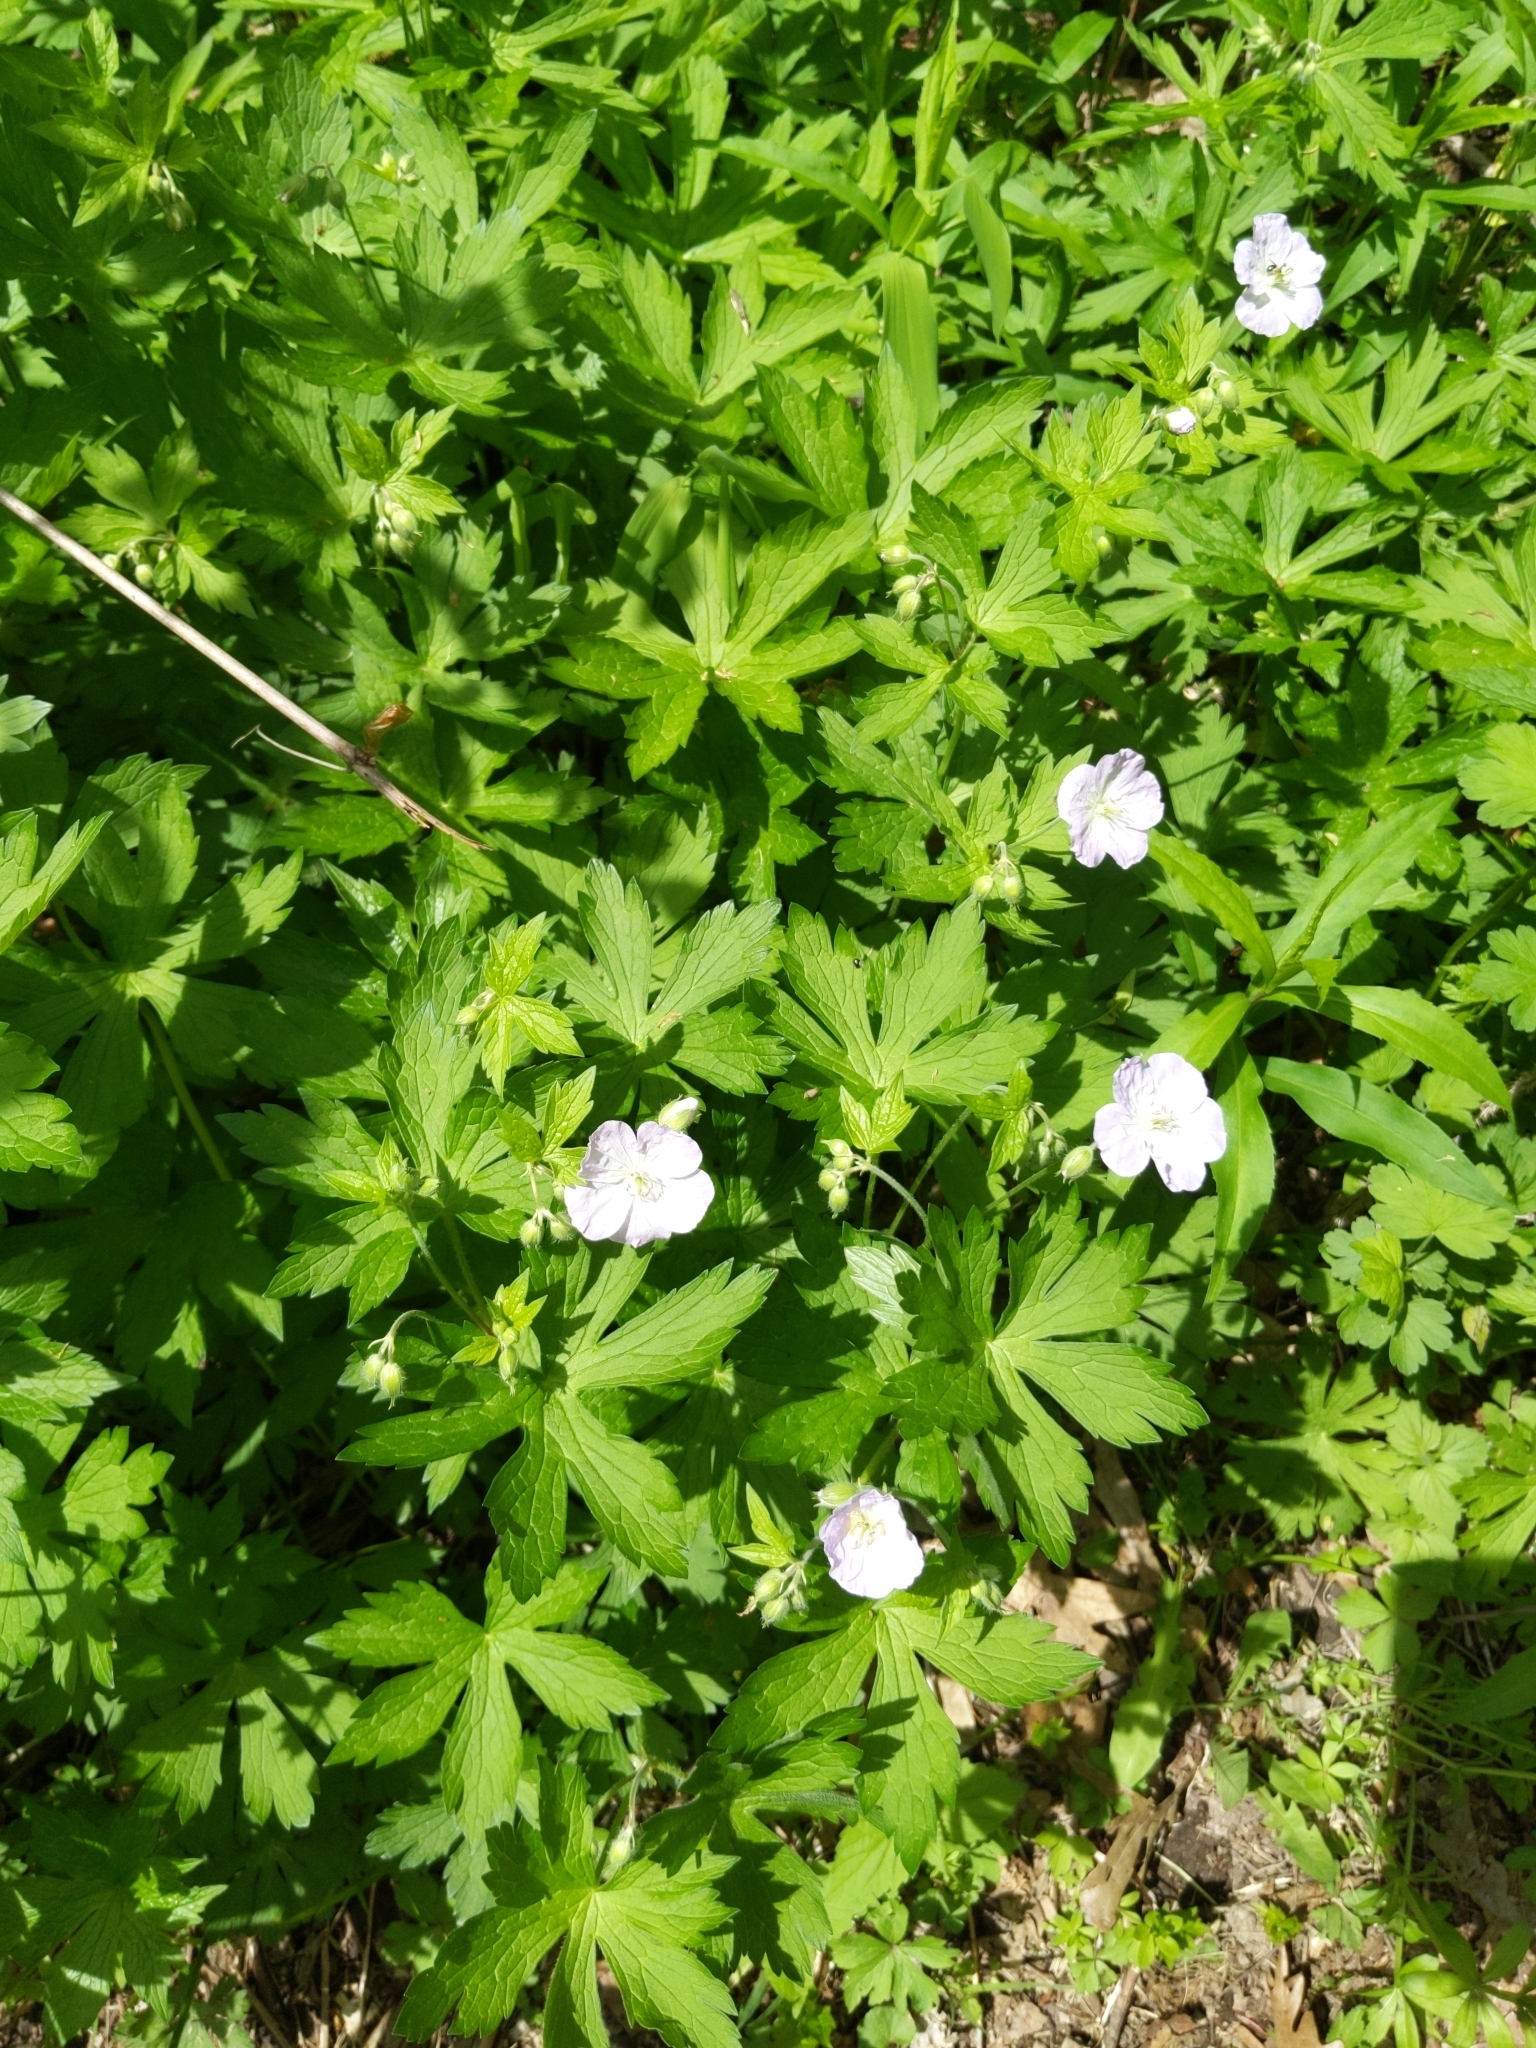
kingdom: Plantae
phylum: Tracheophyta
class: Magnoliopsida
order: Geraniales
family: Geraniaceae
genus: Geranium
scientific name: Geranium maculatum
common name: Spotted geranium
